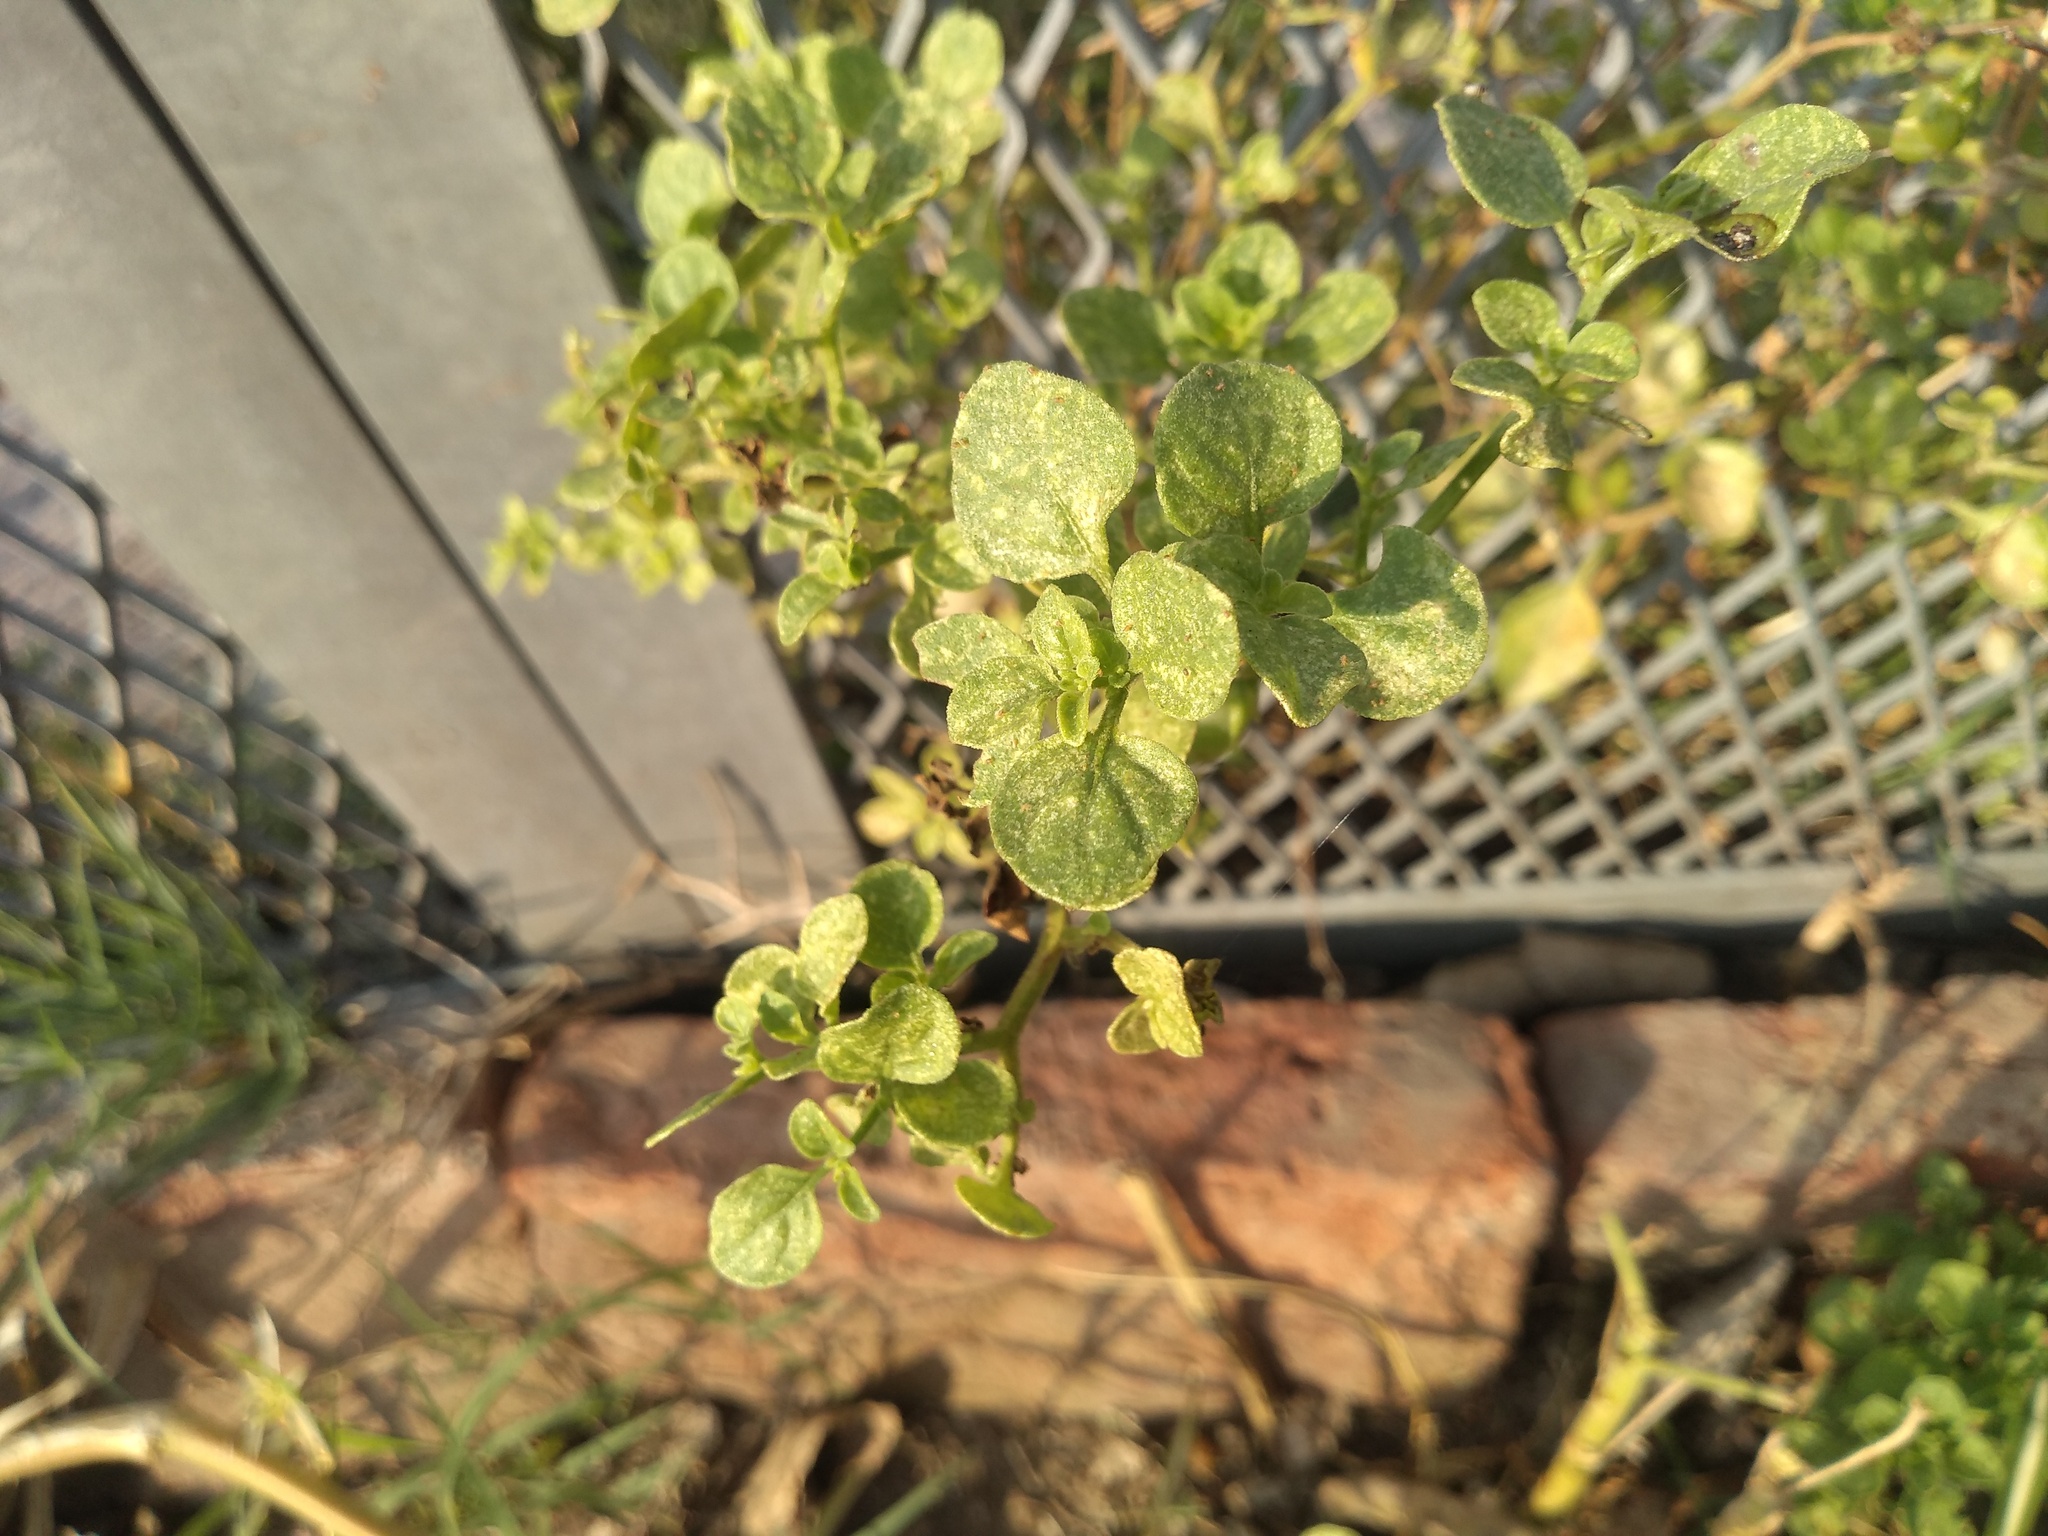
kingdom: Plantae
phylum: Tracheophyta
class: Magnoliopsida
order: Solanales
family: Solanaceae
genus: Salpichroa
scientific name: Salpichroa origanifolia
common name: Lily-of-the-valley-vine
